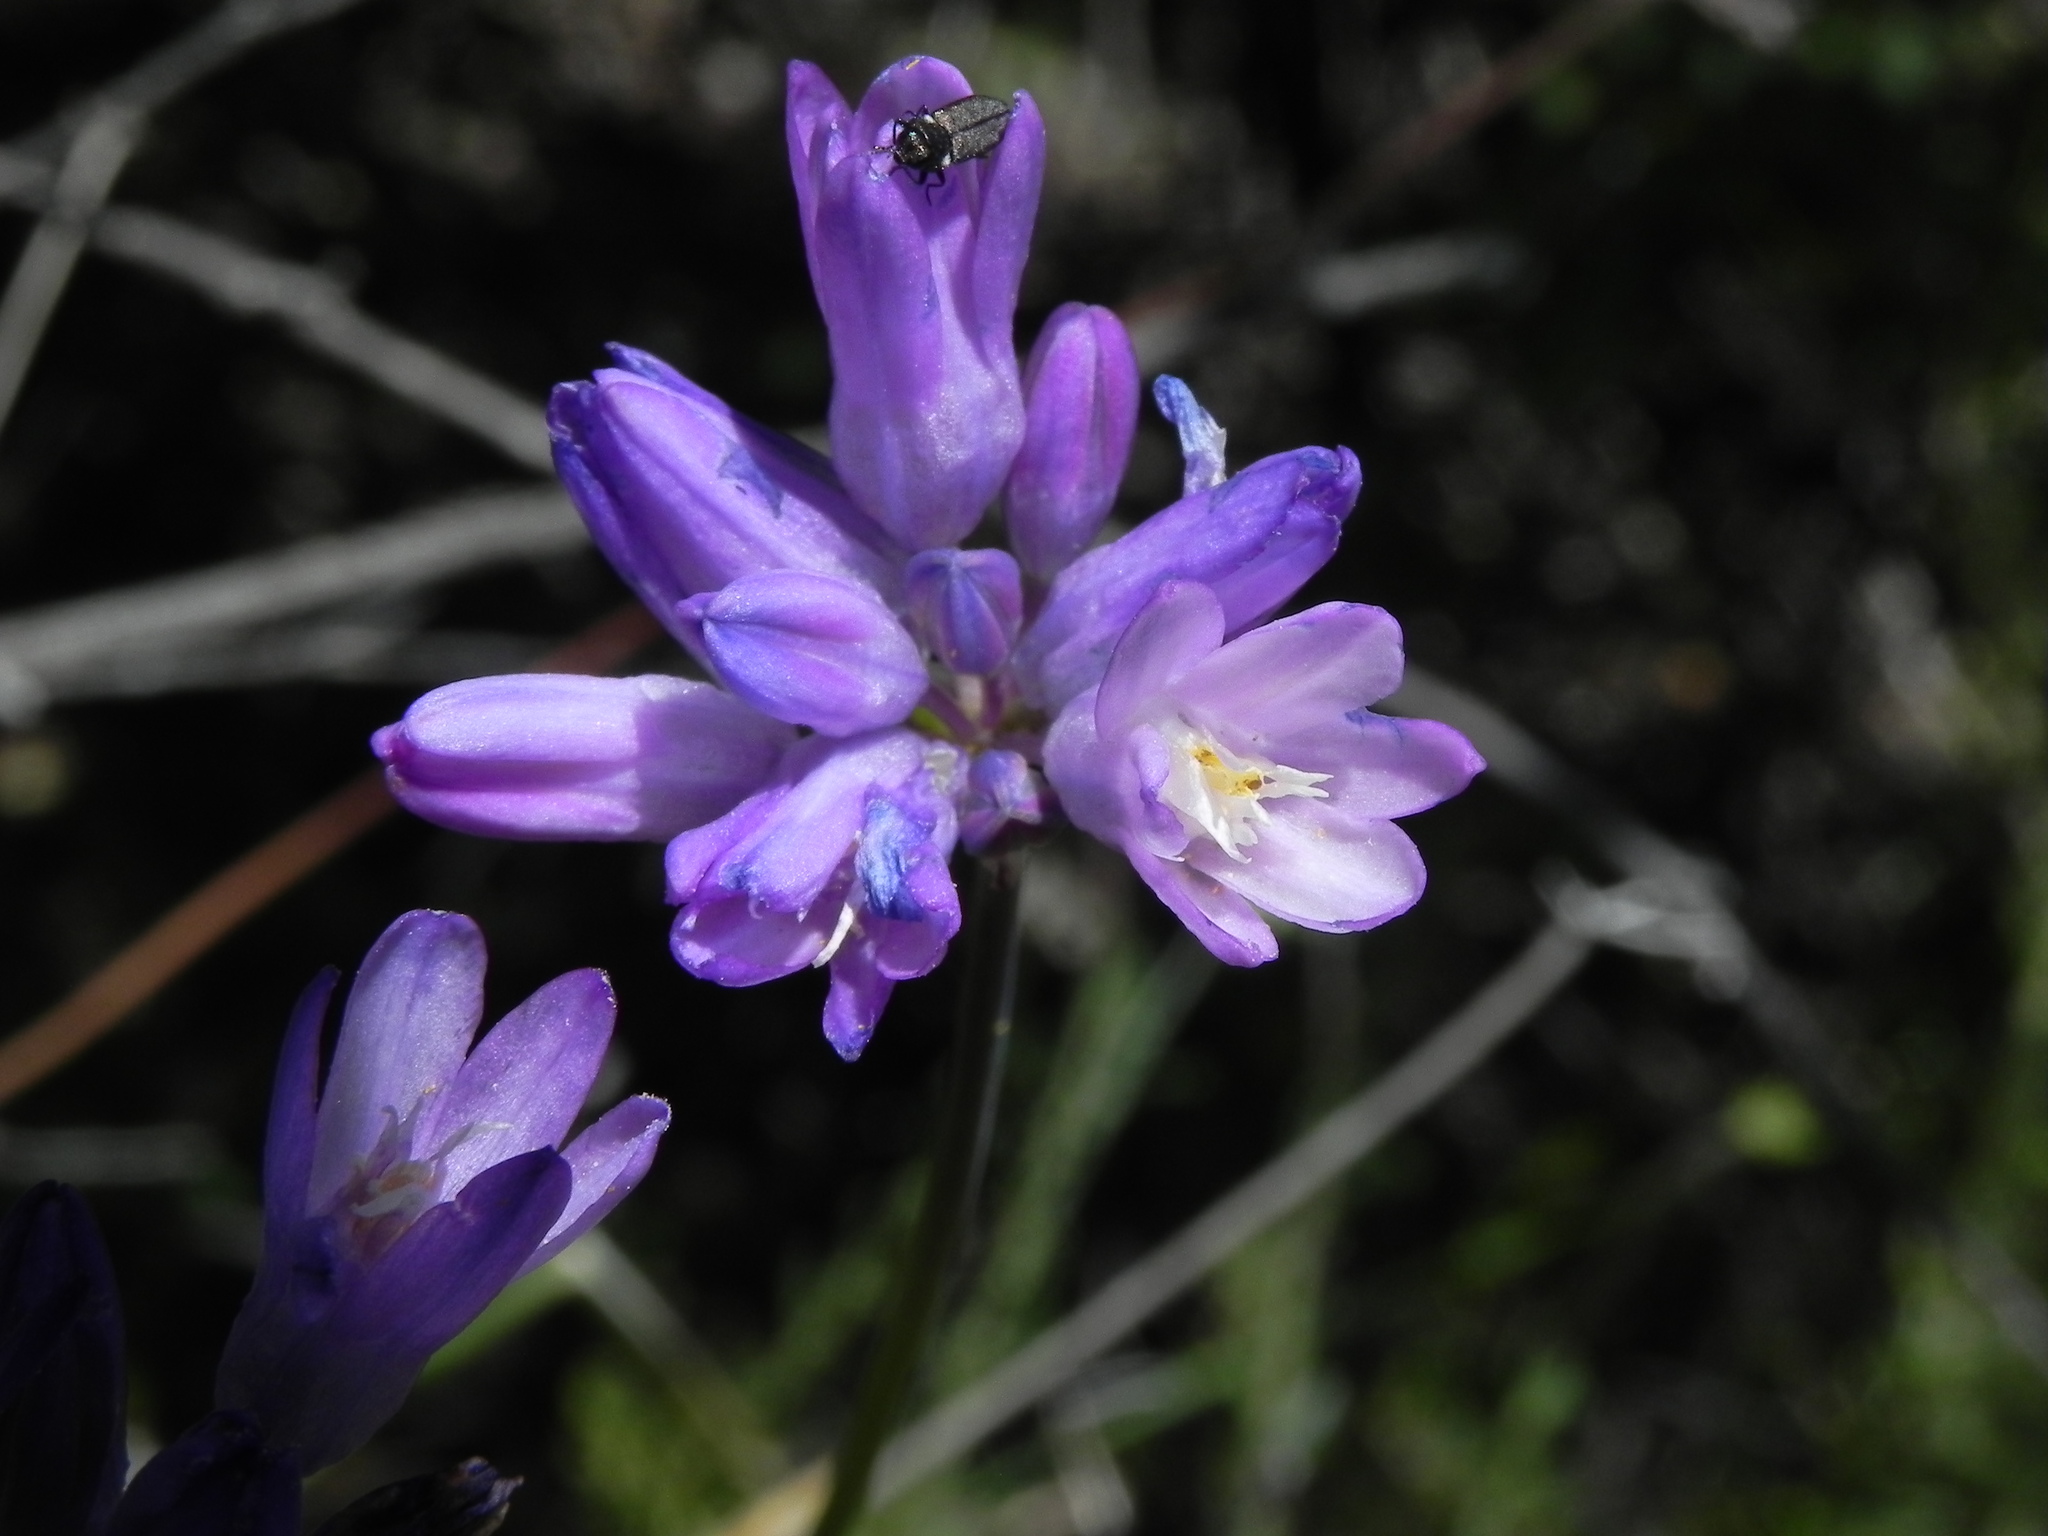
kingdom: Plantae
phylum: Tracheophyta
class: Liliopsida
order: Asparagales
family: Asparagaceae
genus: Dipterostemon
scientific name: Dipterostemon capitatus
